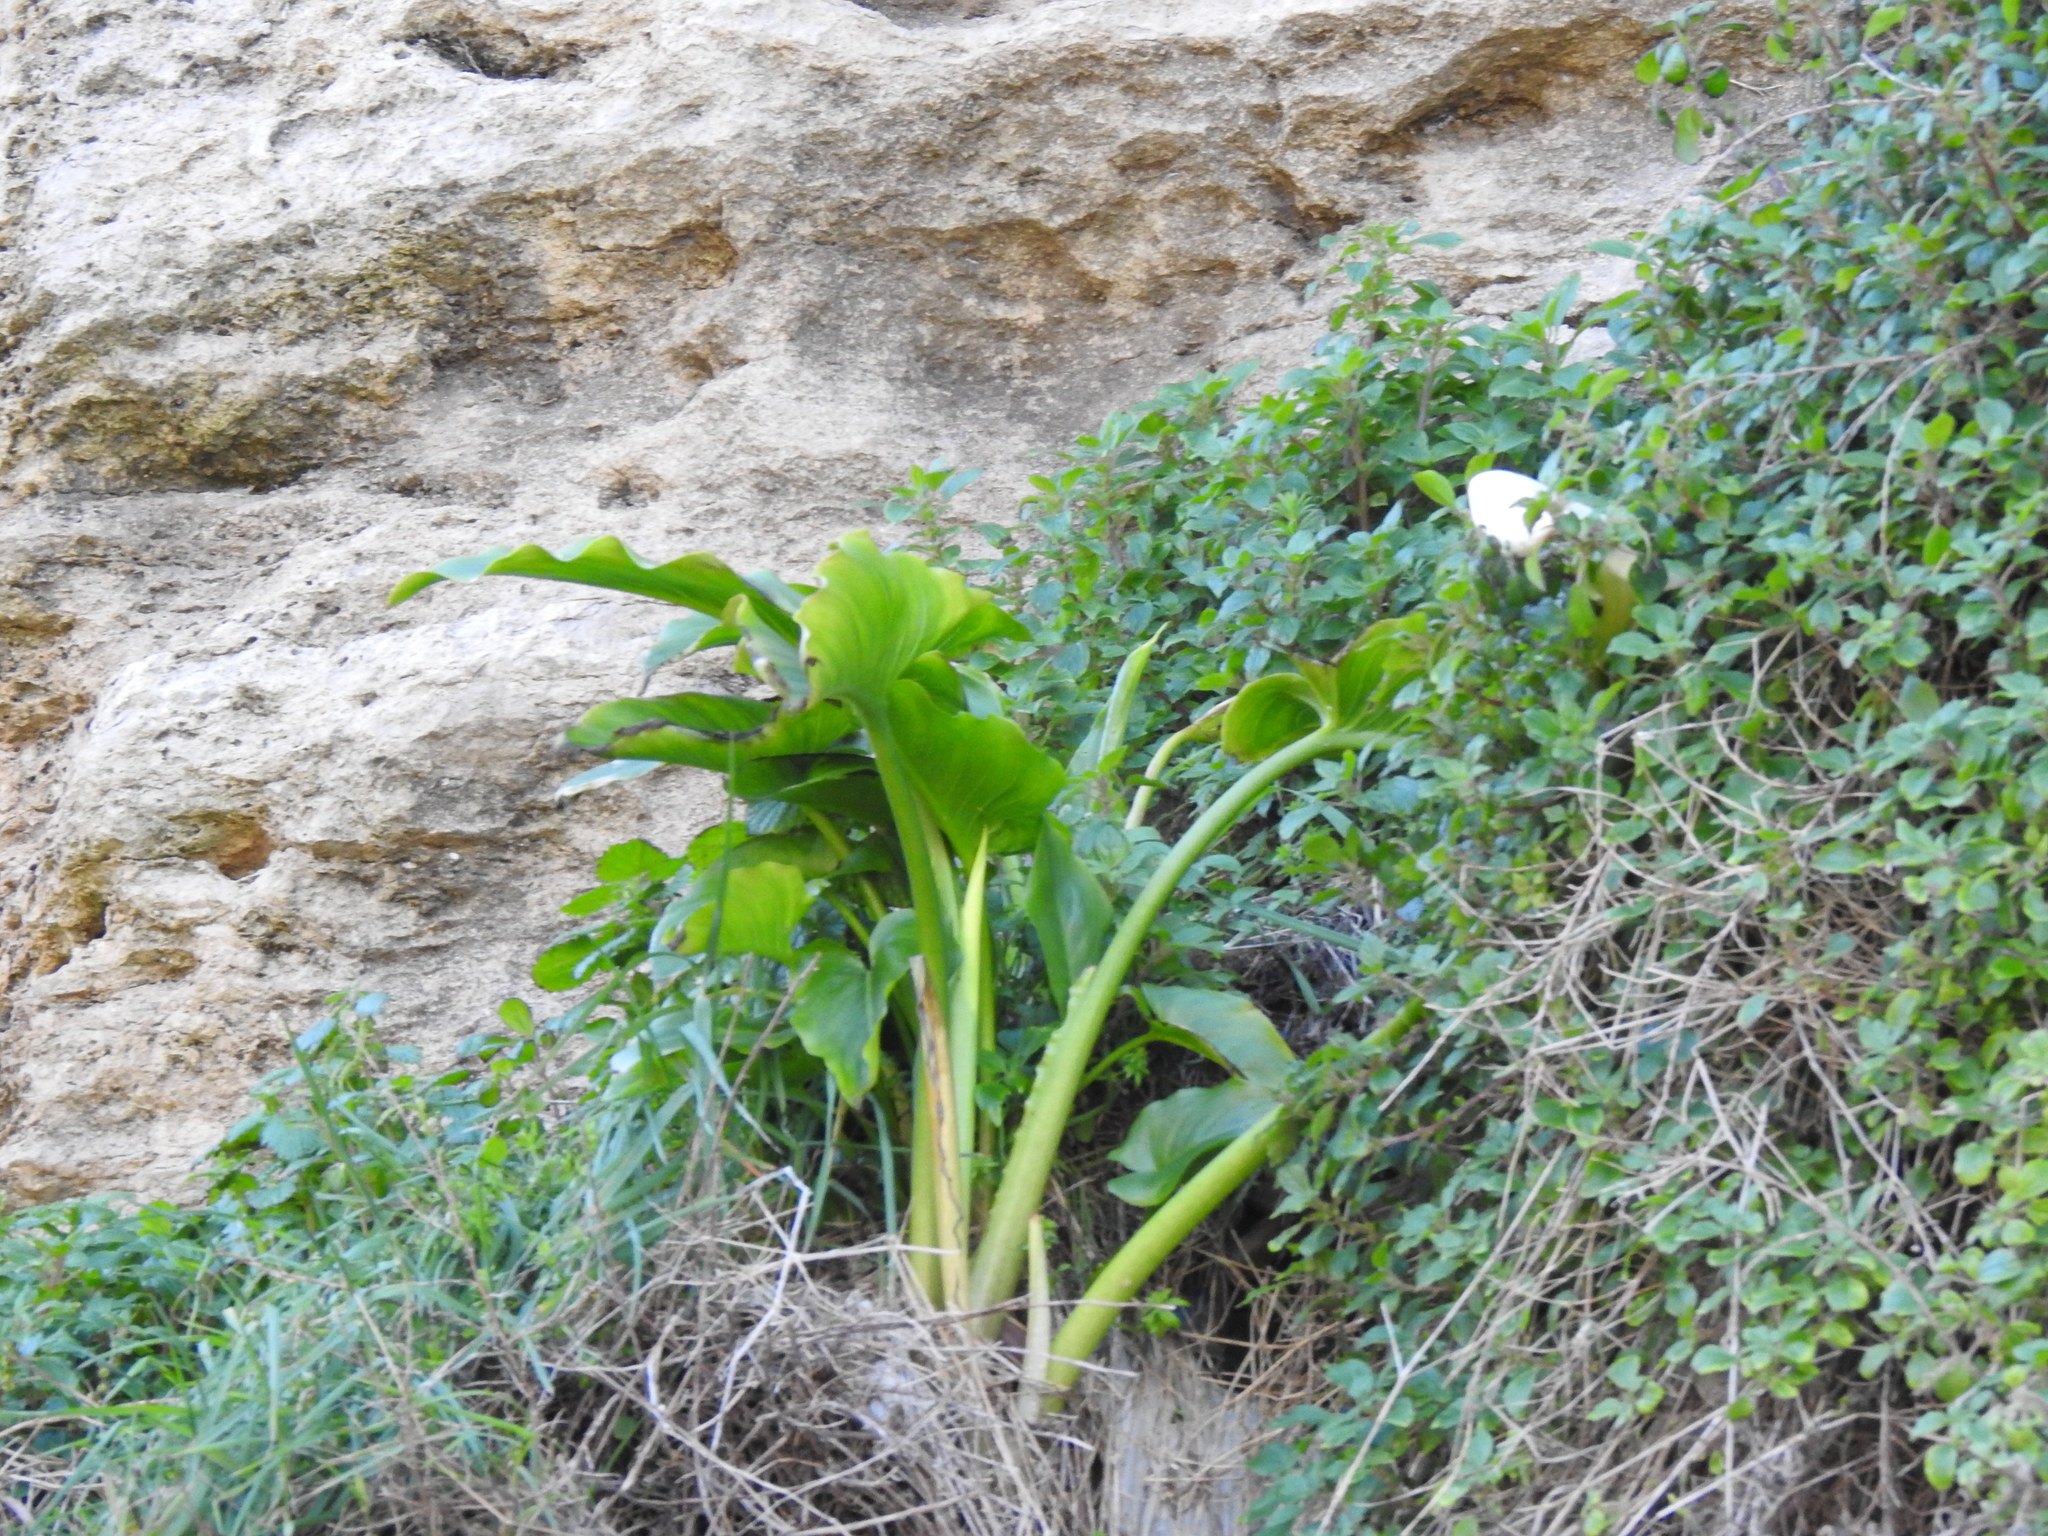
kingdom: Plantae
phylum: Tracheophyta
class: Liliopsida
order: Alismatales
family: Araceae
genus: Zantedeschia
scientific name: Zantedeschia aethiopica
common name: Altar-lily
